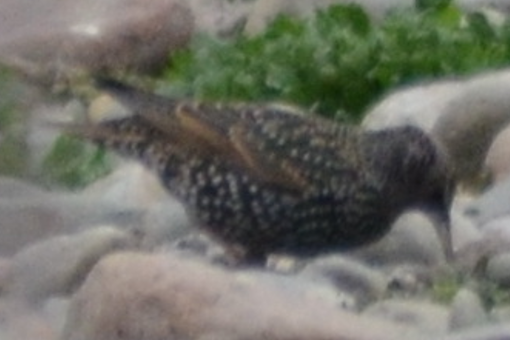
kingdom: Animalia
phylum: Chordata
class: Aves
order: Passeriformes
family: Sturnidae
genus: Sturnus
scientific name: Sturnus vulgaris
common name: Common starling
